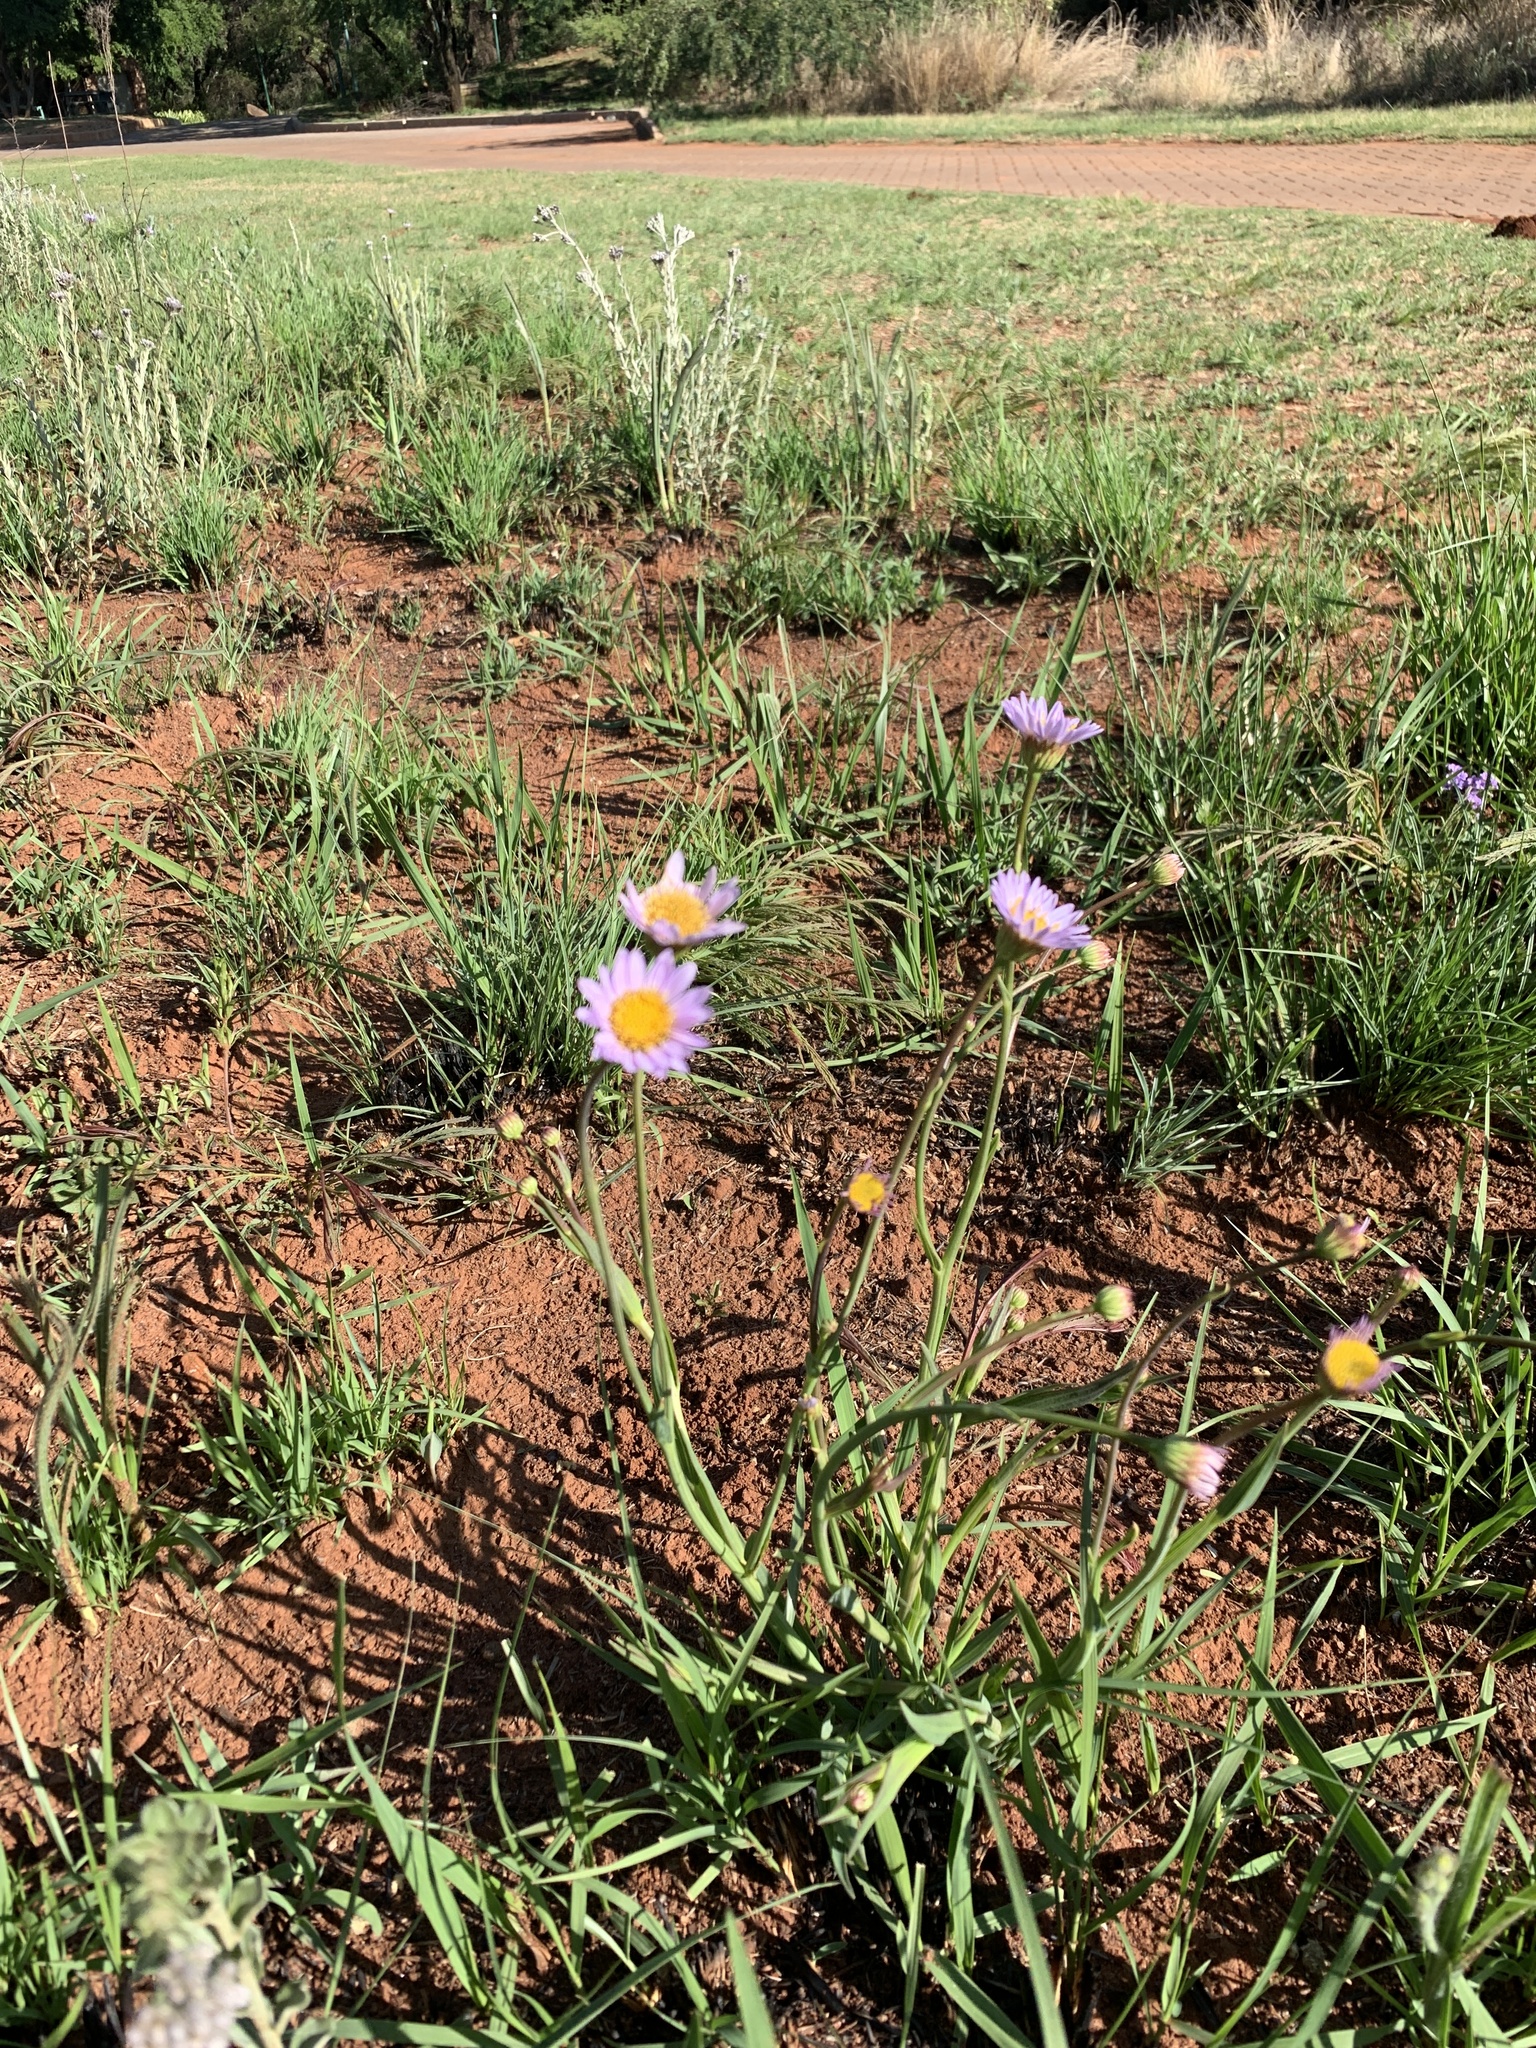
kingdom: Plantae
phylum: Tracheophyta
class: Magnoliopsida
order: Asterales
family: Asteraceae
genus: Afroaster
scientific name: Afroaster serrulatus
